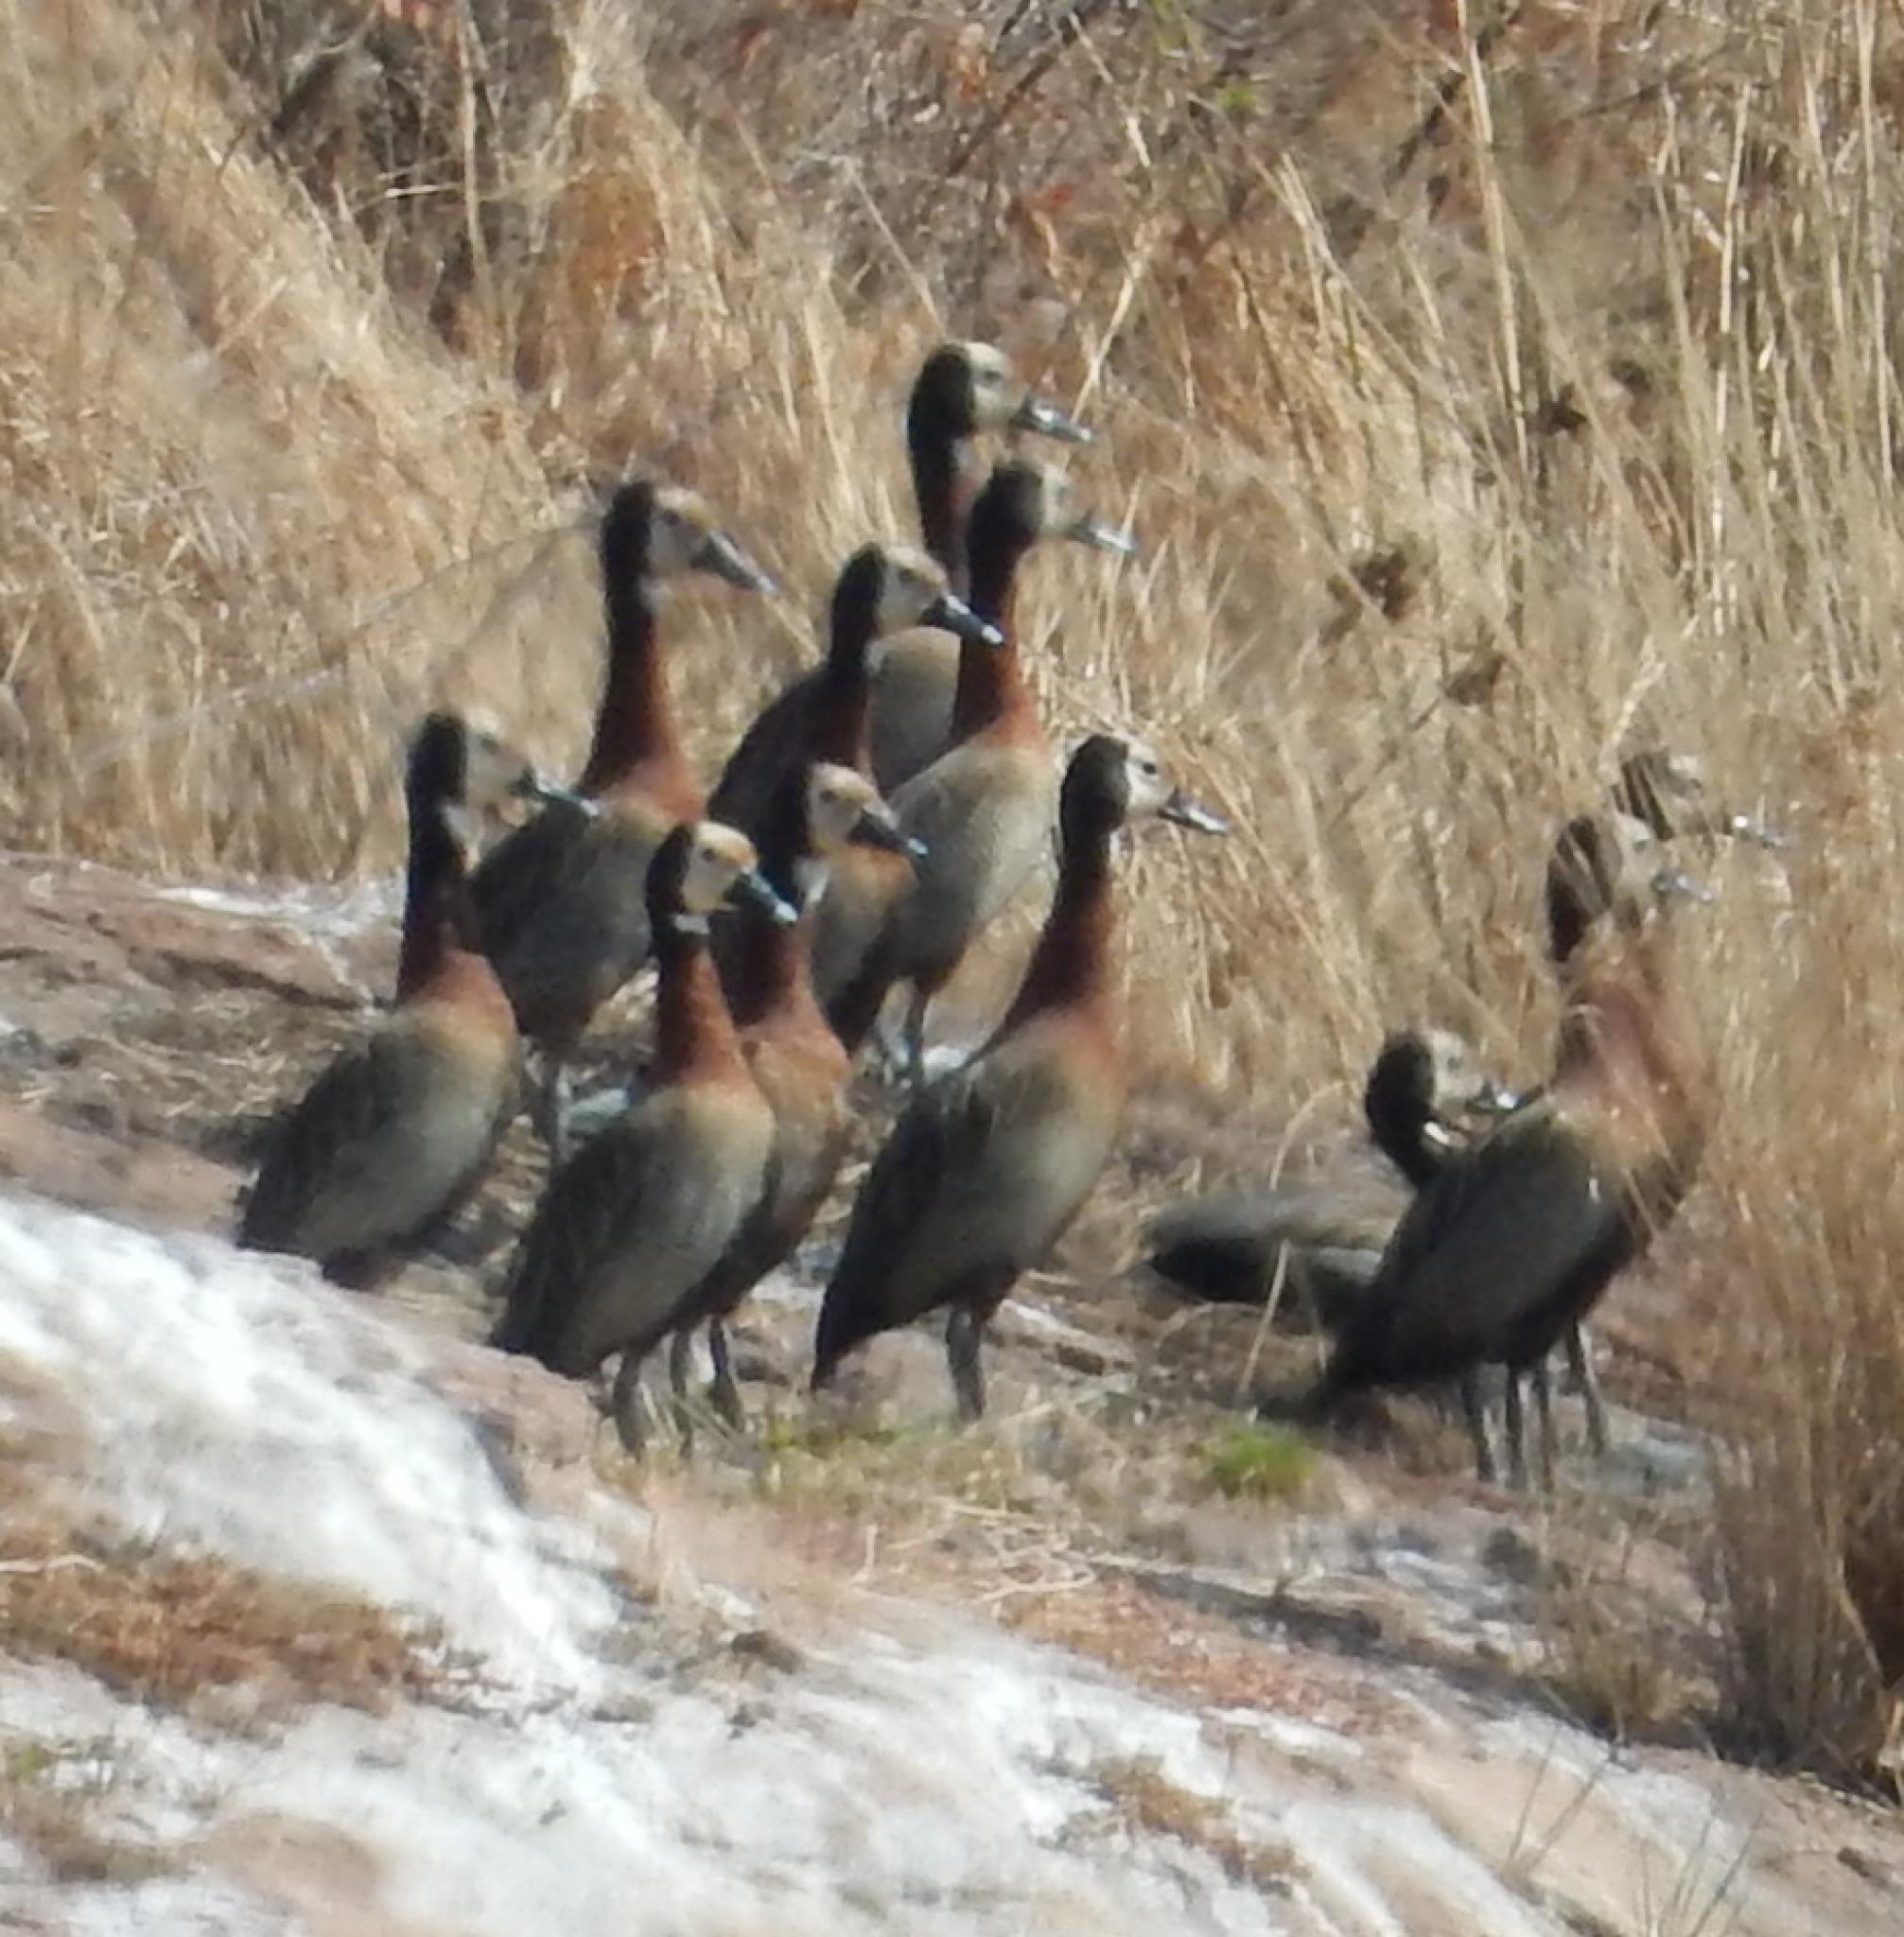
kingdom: Animalia
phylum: Chordata
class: Aves
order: Anseriformes
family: Anatidae
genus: Dendrocygna
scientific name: Dendrocygna viduata
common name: White-faced whistling duck
